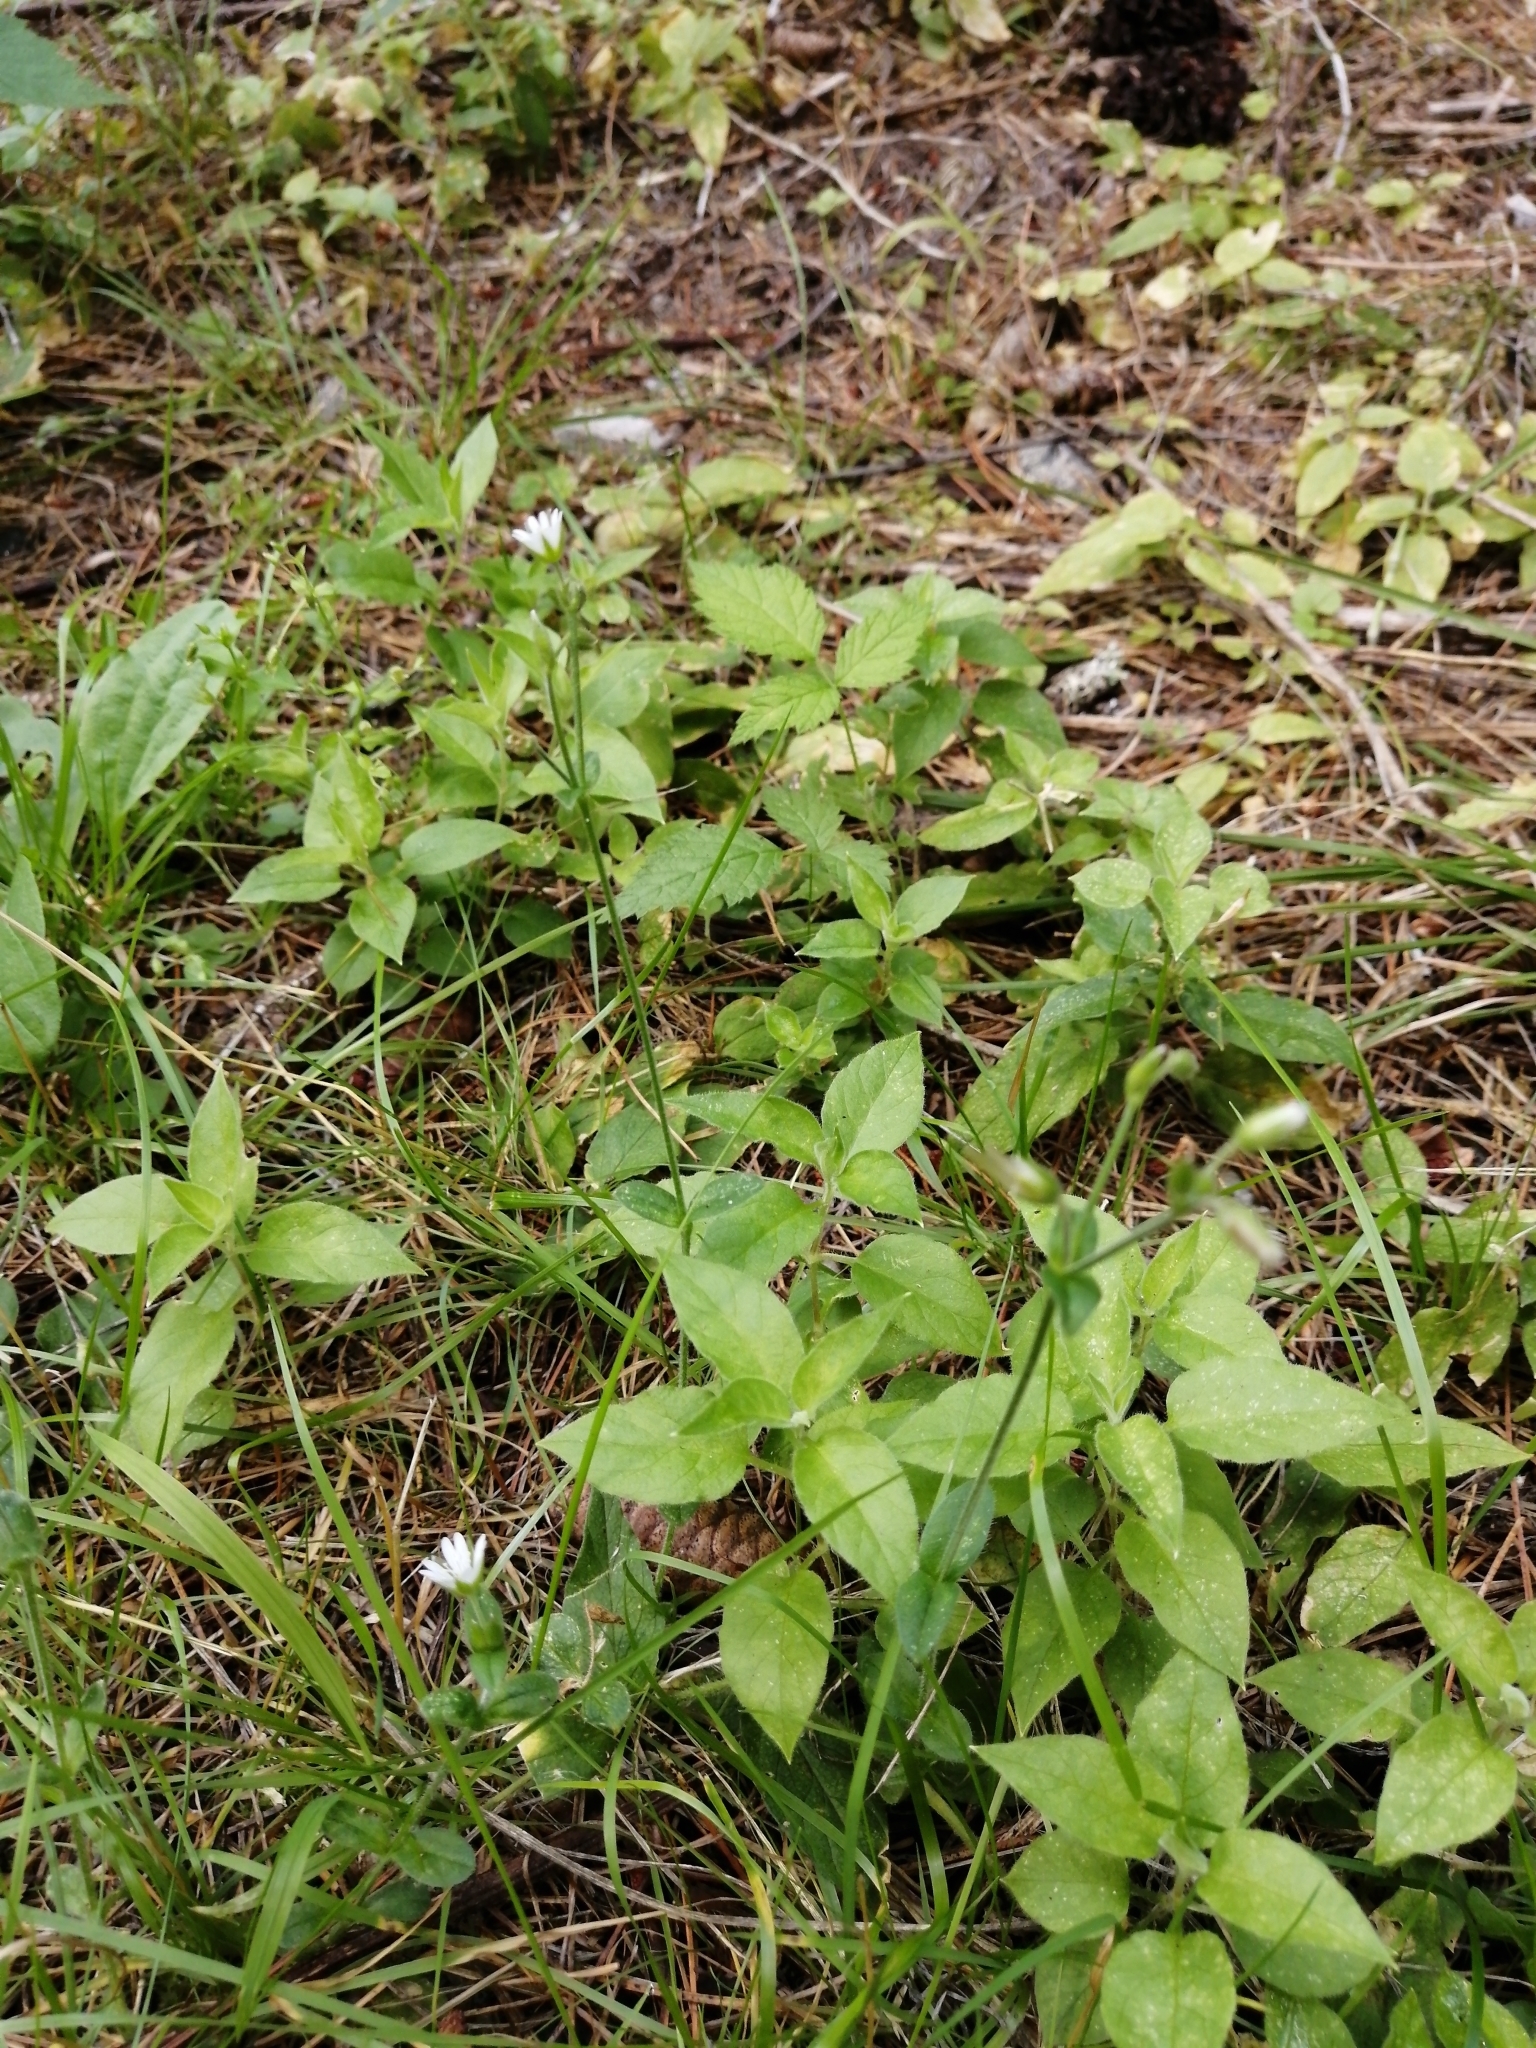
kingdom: Plantae
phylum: Tracheophyta
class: Magnoliopsida
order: Caryophyllales
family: Caryophyllaceae
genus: Cerastium
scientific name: Cerastium holosteoides
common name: Big chickweed
